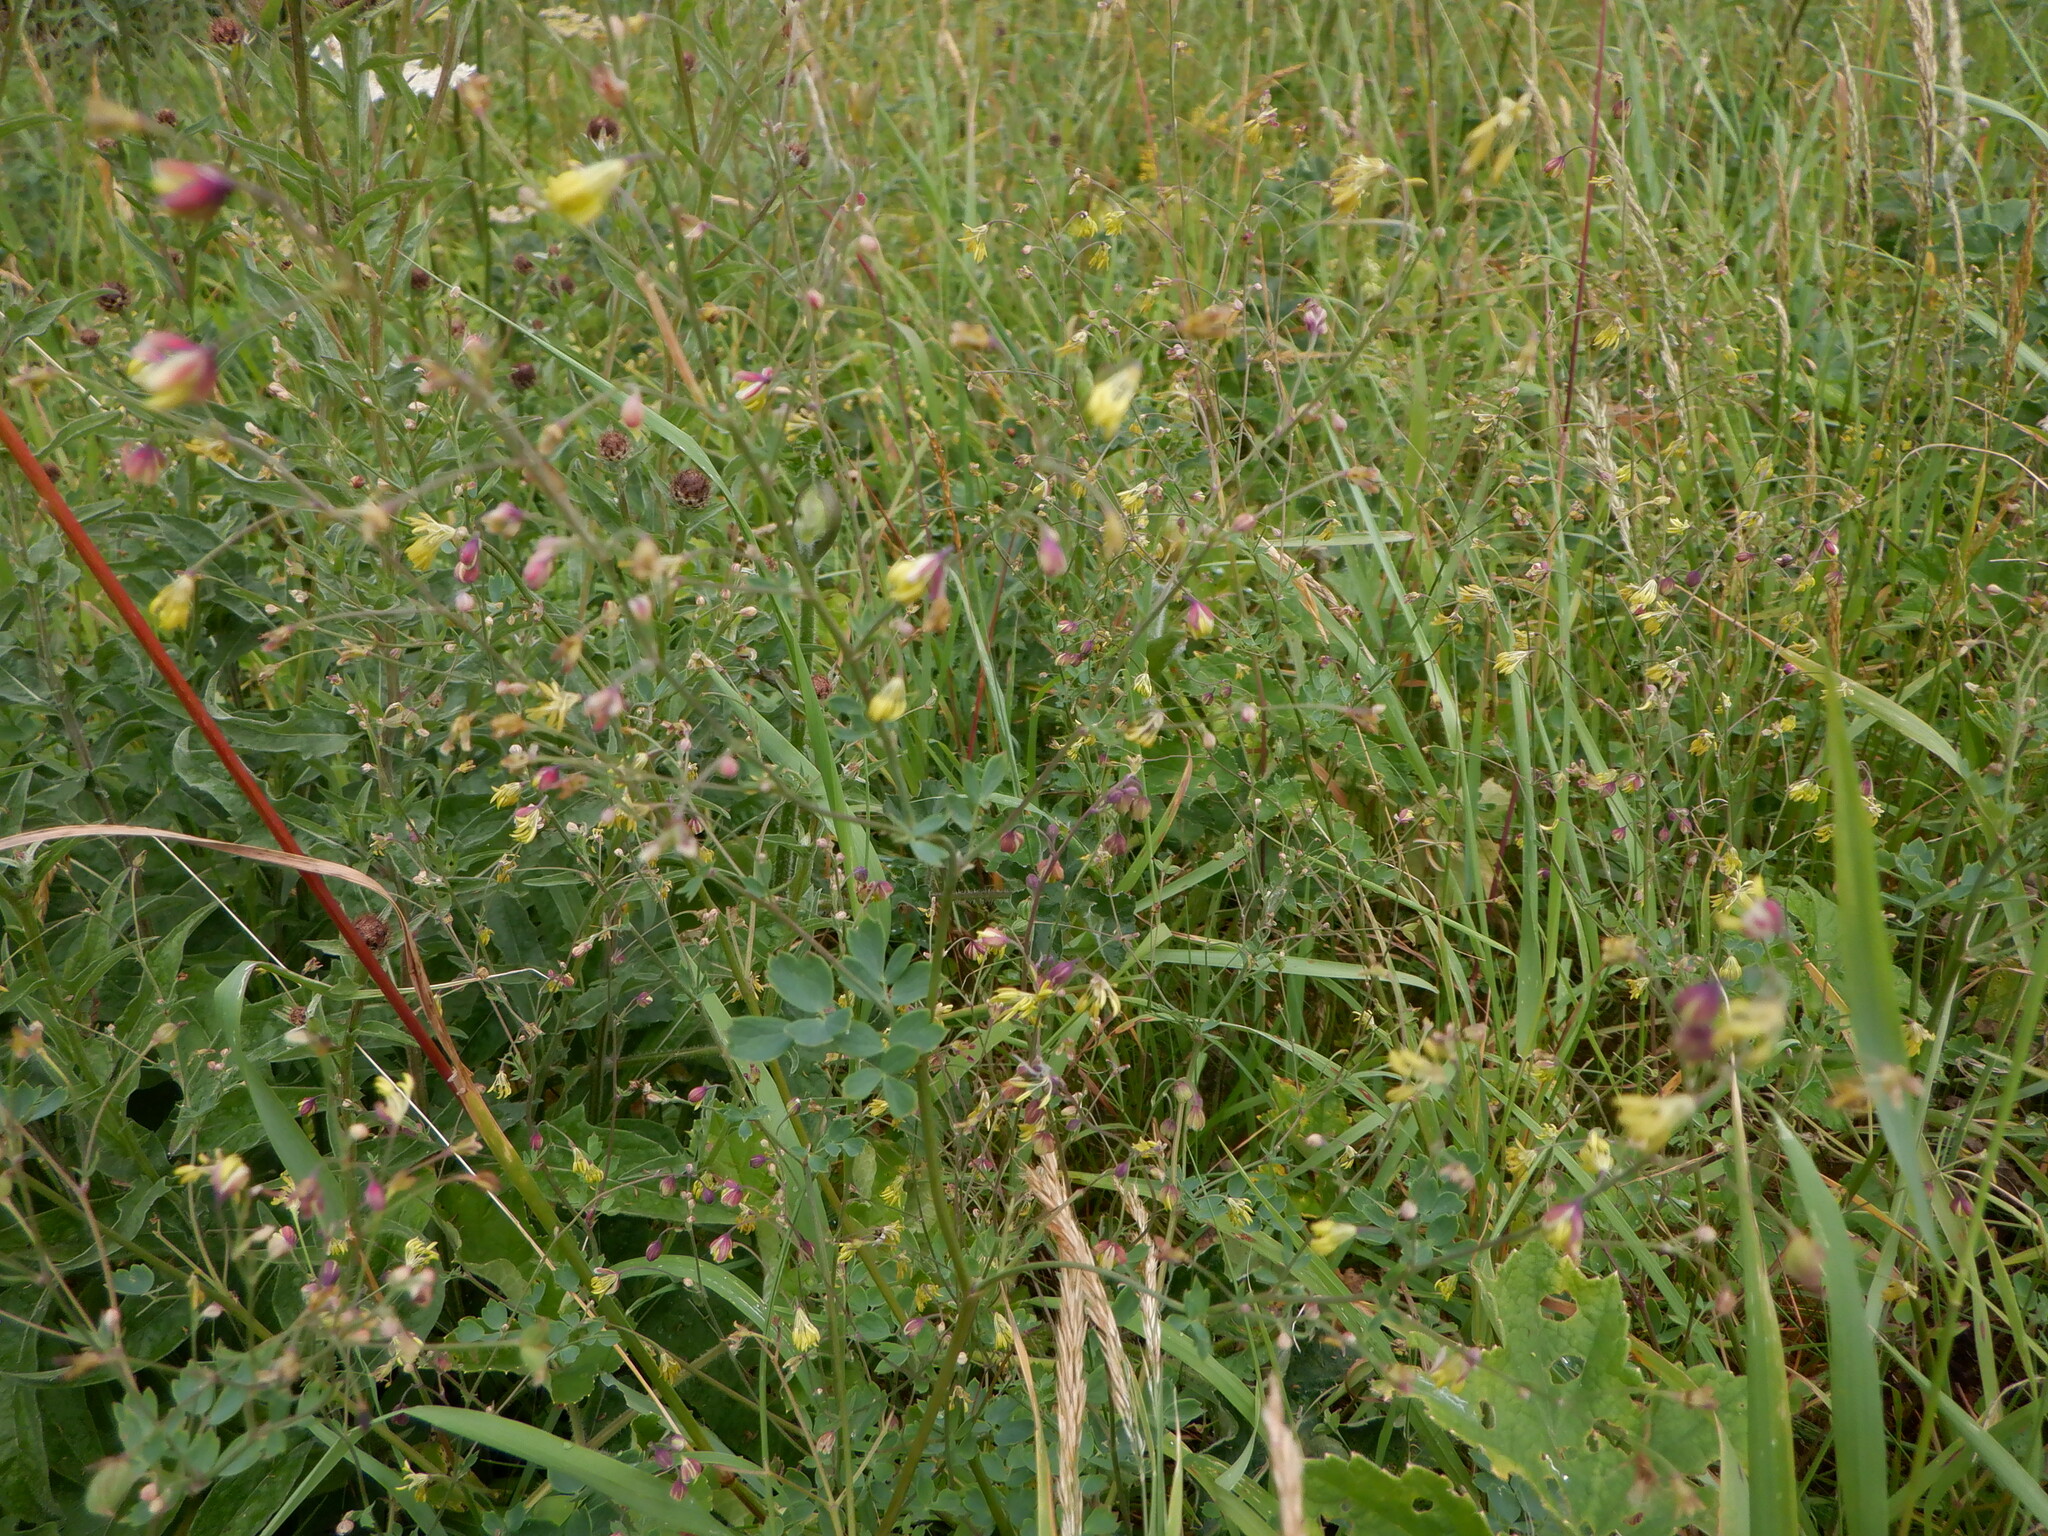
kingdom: Plantae
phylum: Tracheophyta
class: Magnoliopsida
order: Ranunculales
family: Ranunculaceae
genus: Thalictrum
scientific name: Thalictrum minus
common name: Lesser meadow-rue
